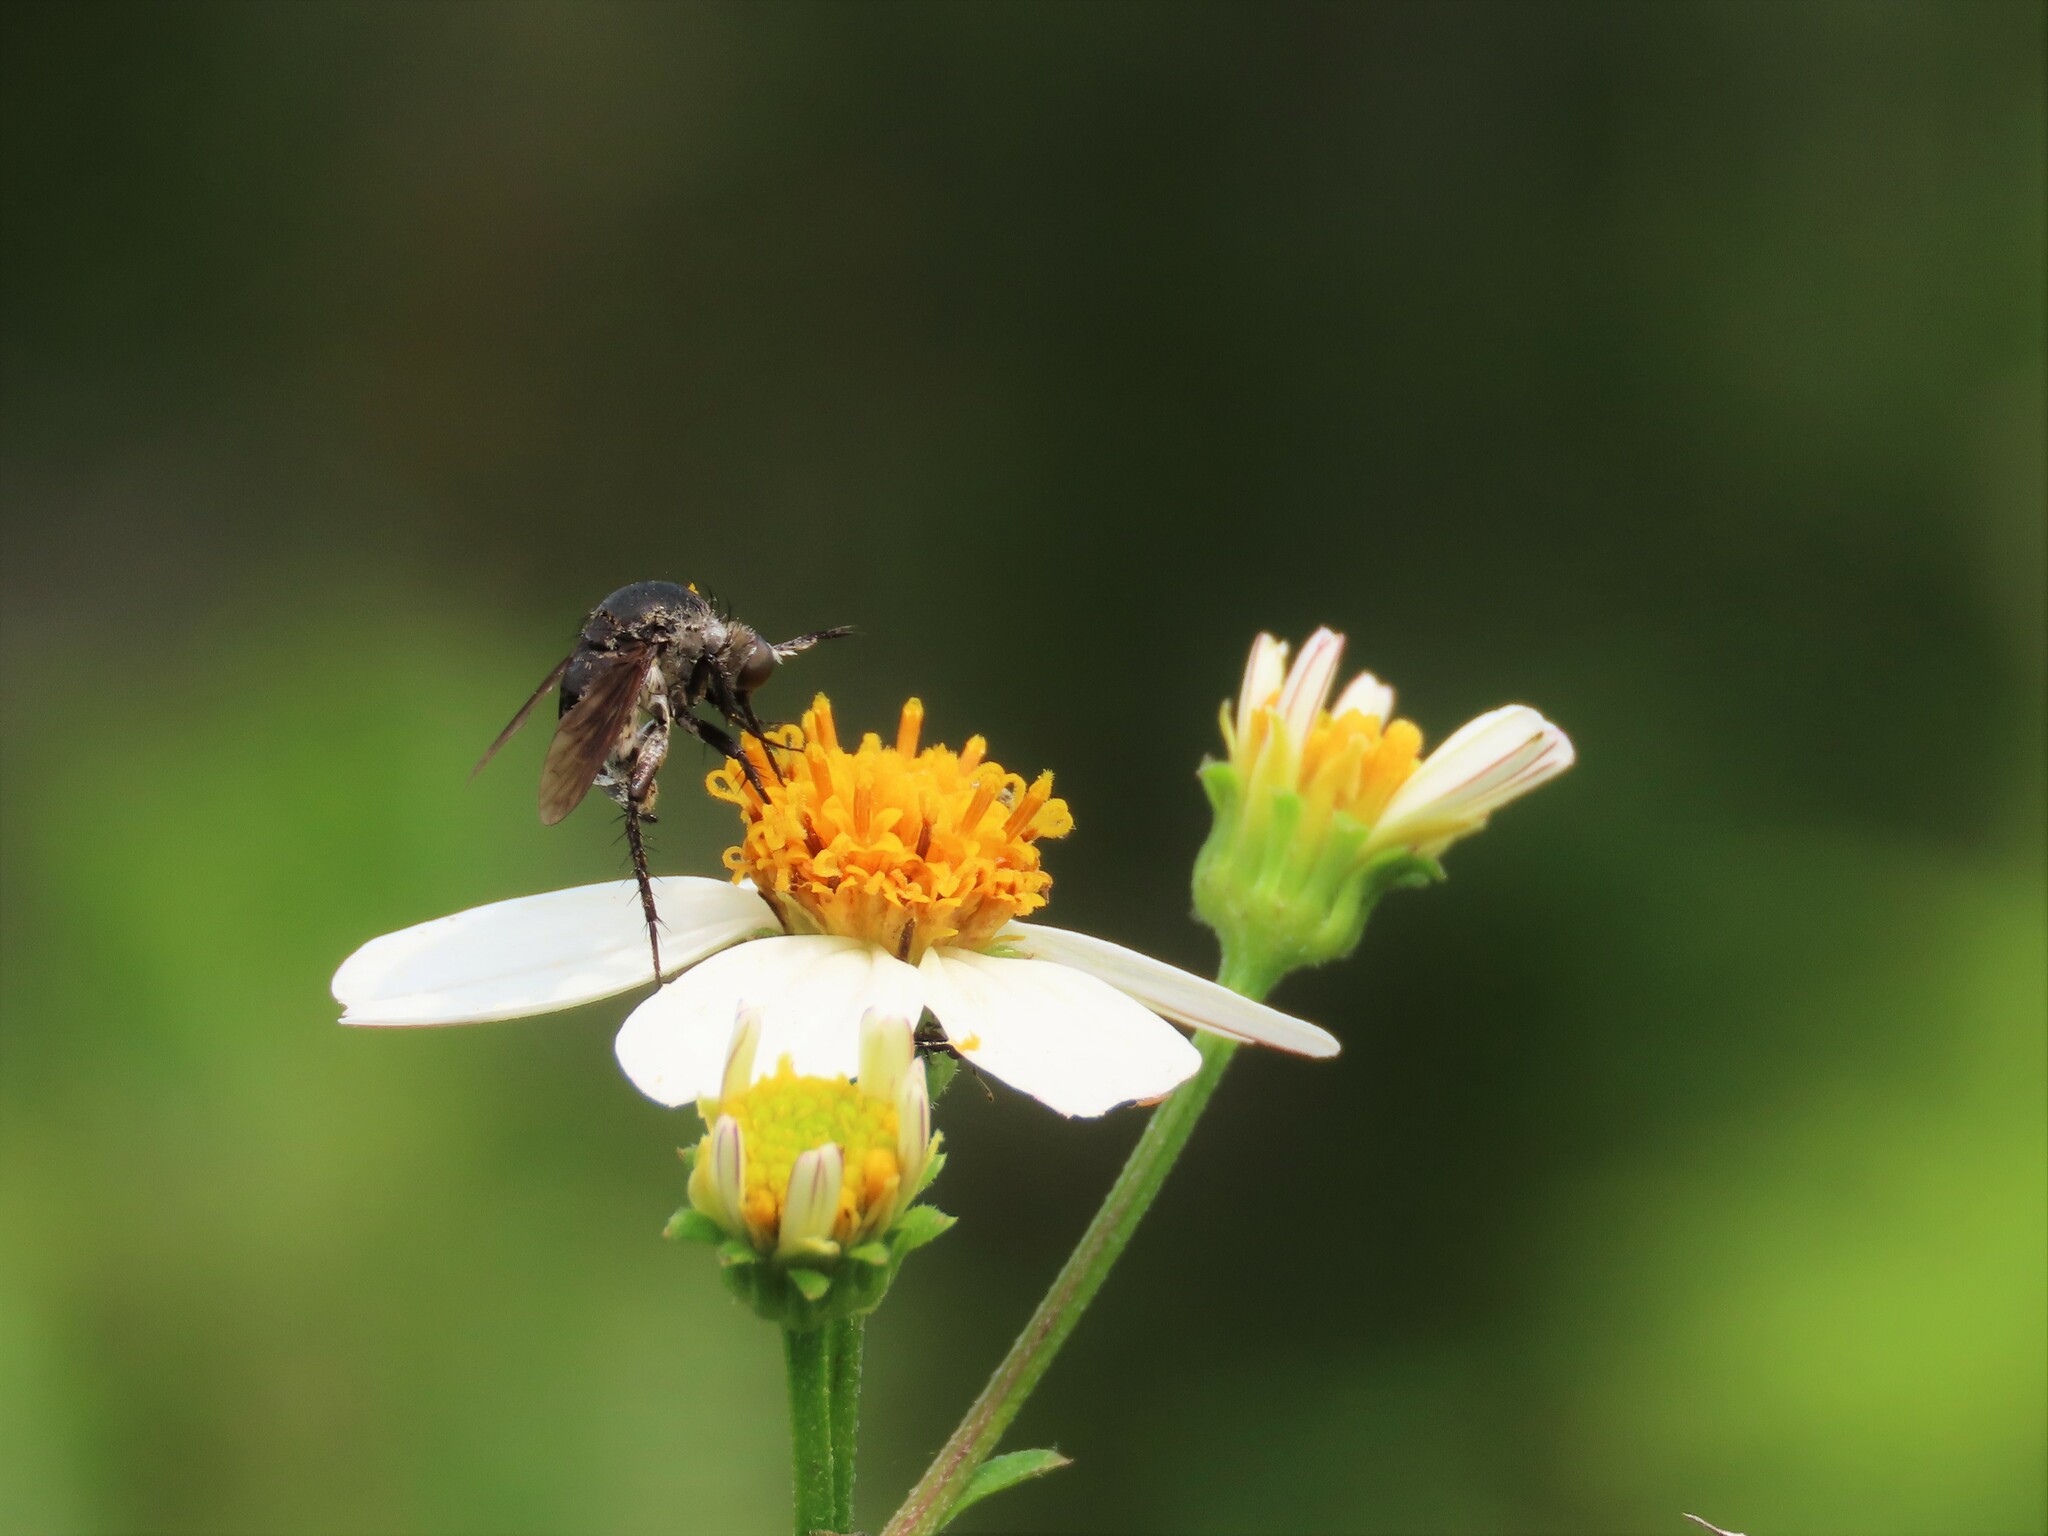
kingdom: Animalia
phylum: Arthropoda
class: Insecta
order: Diptera
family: Bombyliidae
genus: Toxophora
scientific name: Toxophora amphitea
